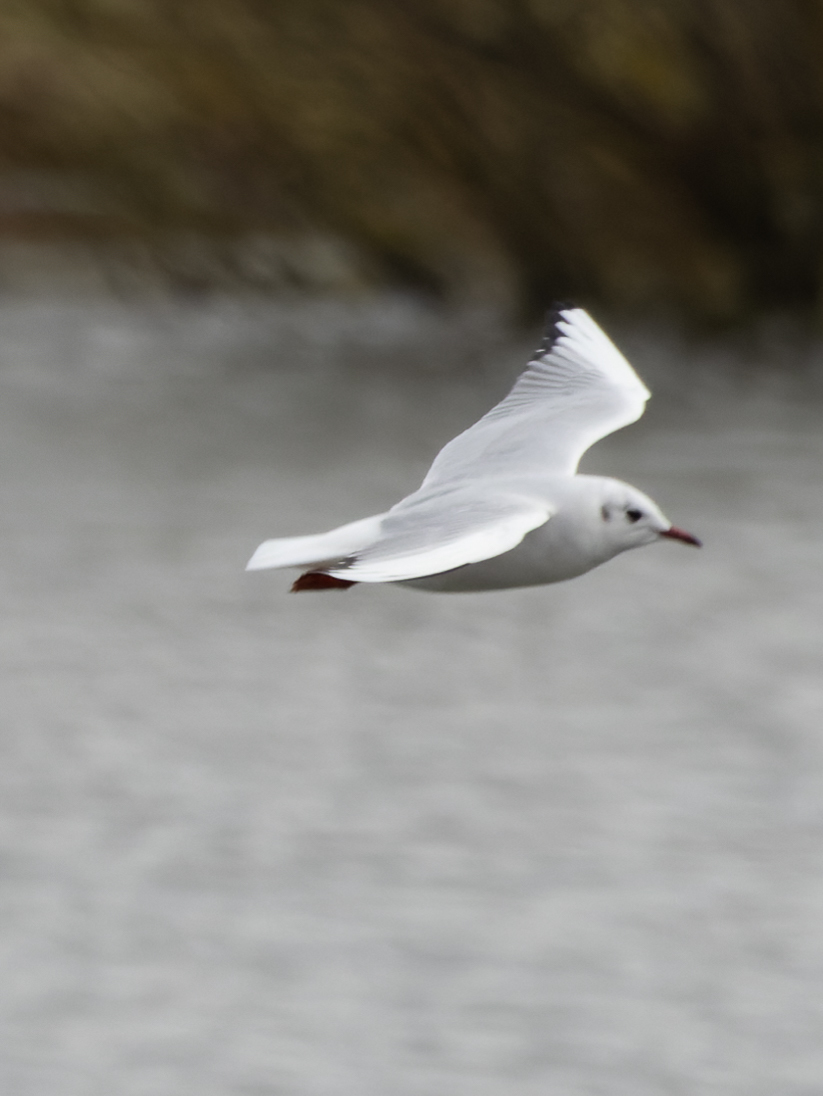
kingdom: Animalia
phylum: Chordata
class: Aves
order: Charadriiformes
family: Laridae
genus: Chroicocephalus
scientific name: Chroicocephalus ridibundus
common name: Black-headed gull
